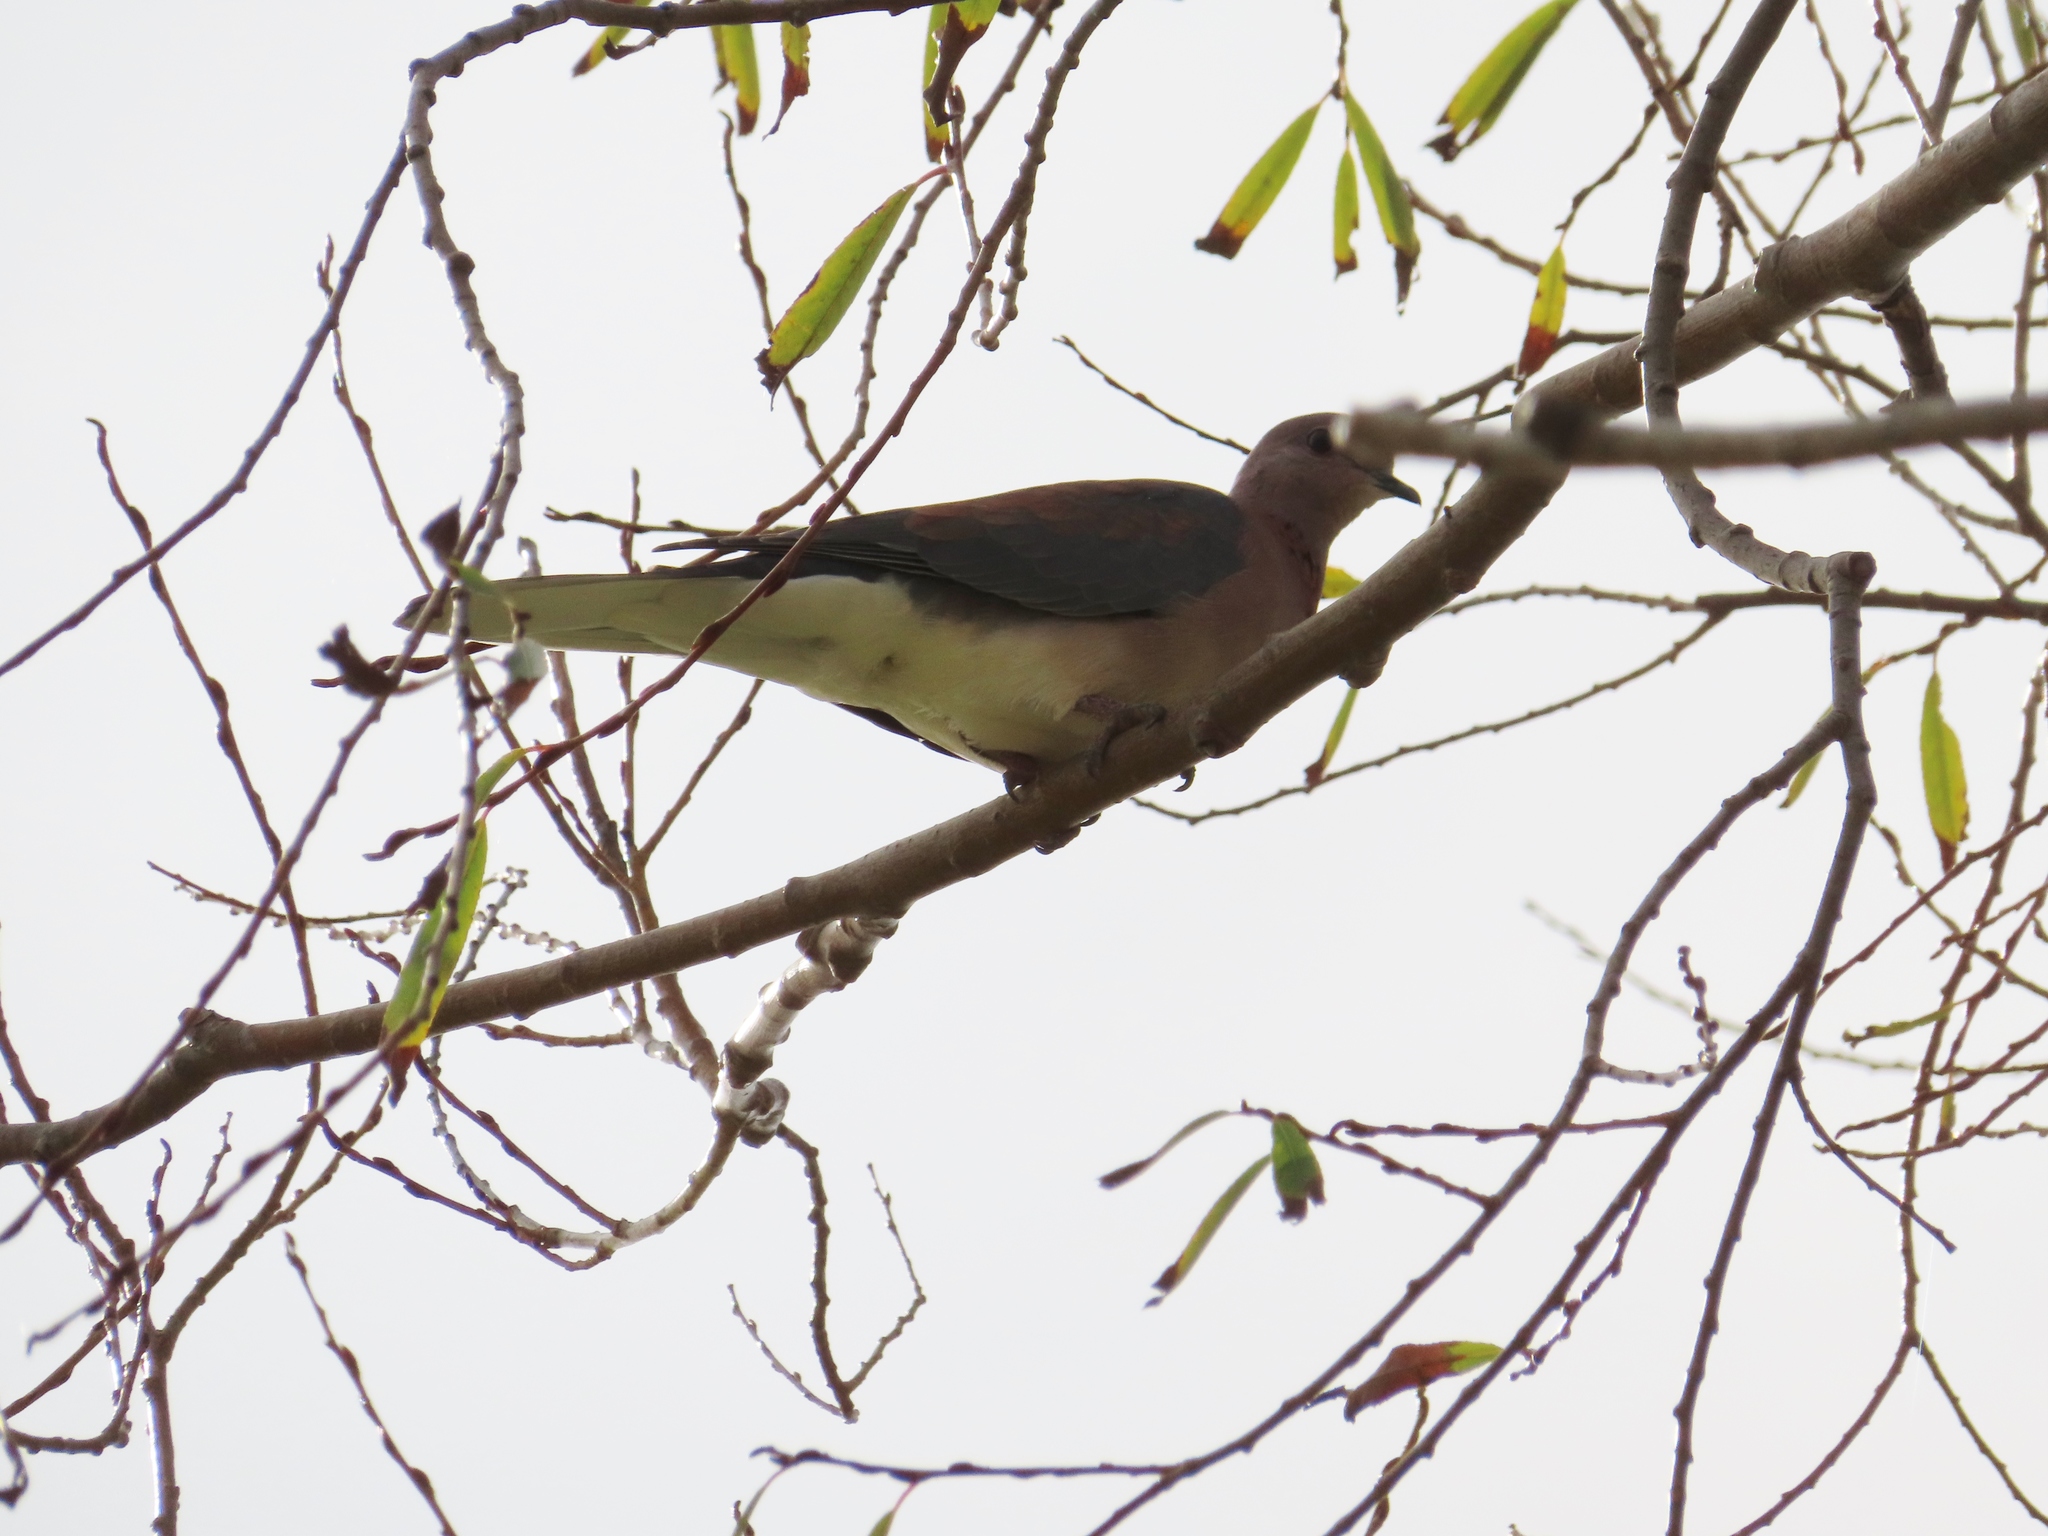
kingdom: Animalia
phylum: Chordata
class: Aves
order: Columbiformes
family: Columbidae
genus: Spilopelia
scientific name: Spilopelia senegalensis
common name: Laughing dove
